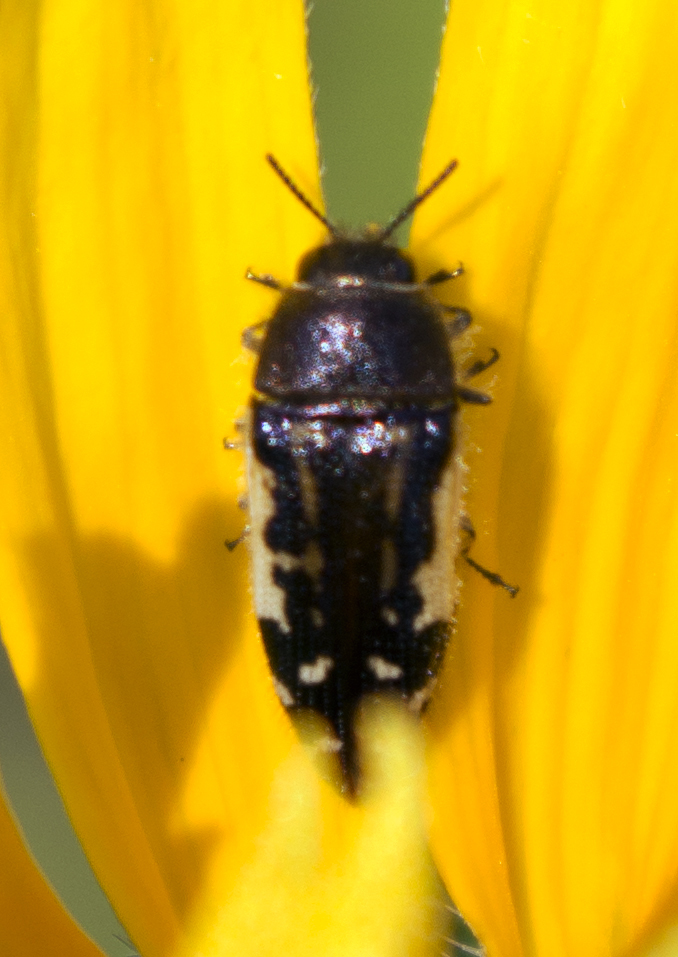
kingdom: Animalia
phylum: Arthropoda
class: Insecta
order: Coleoptera
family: Buprestidae
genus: Acmaeodera
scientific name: Acmaeodera pulchella
